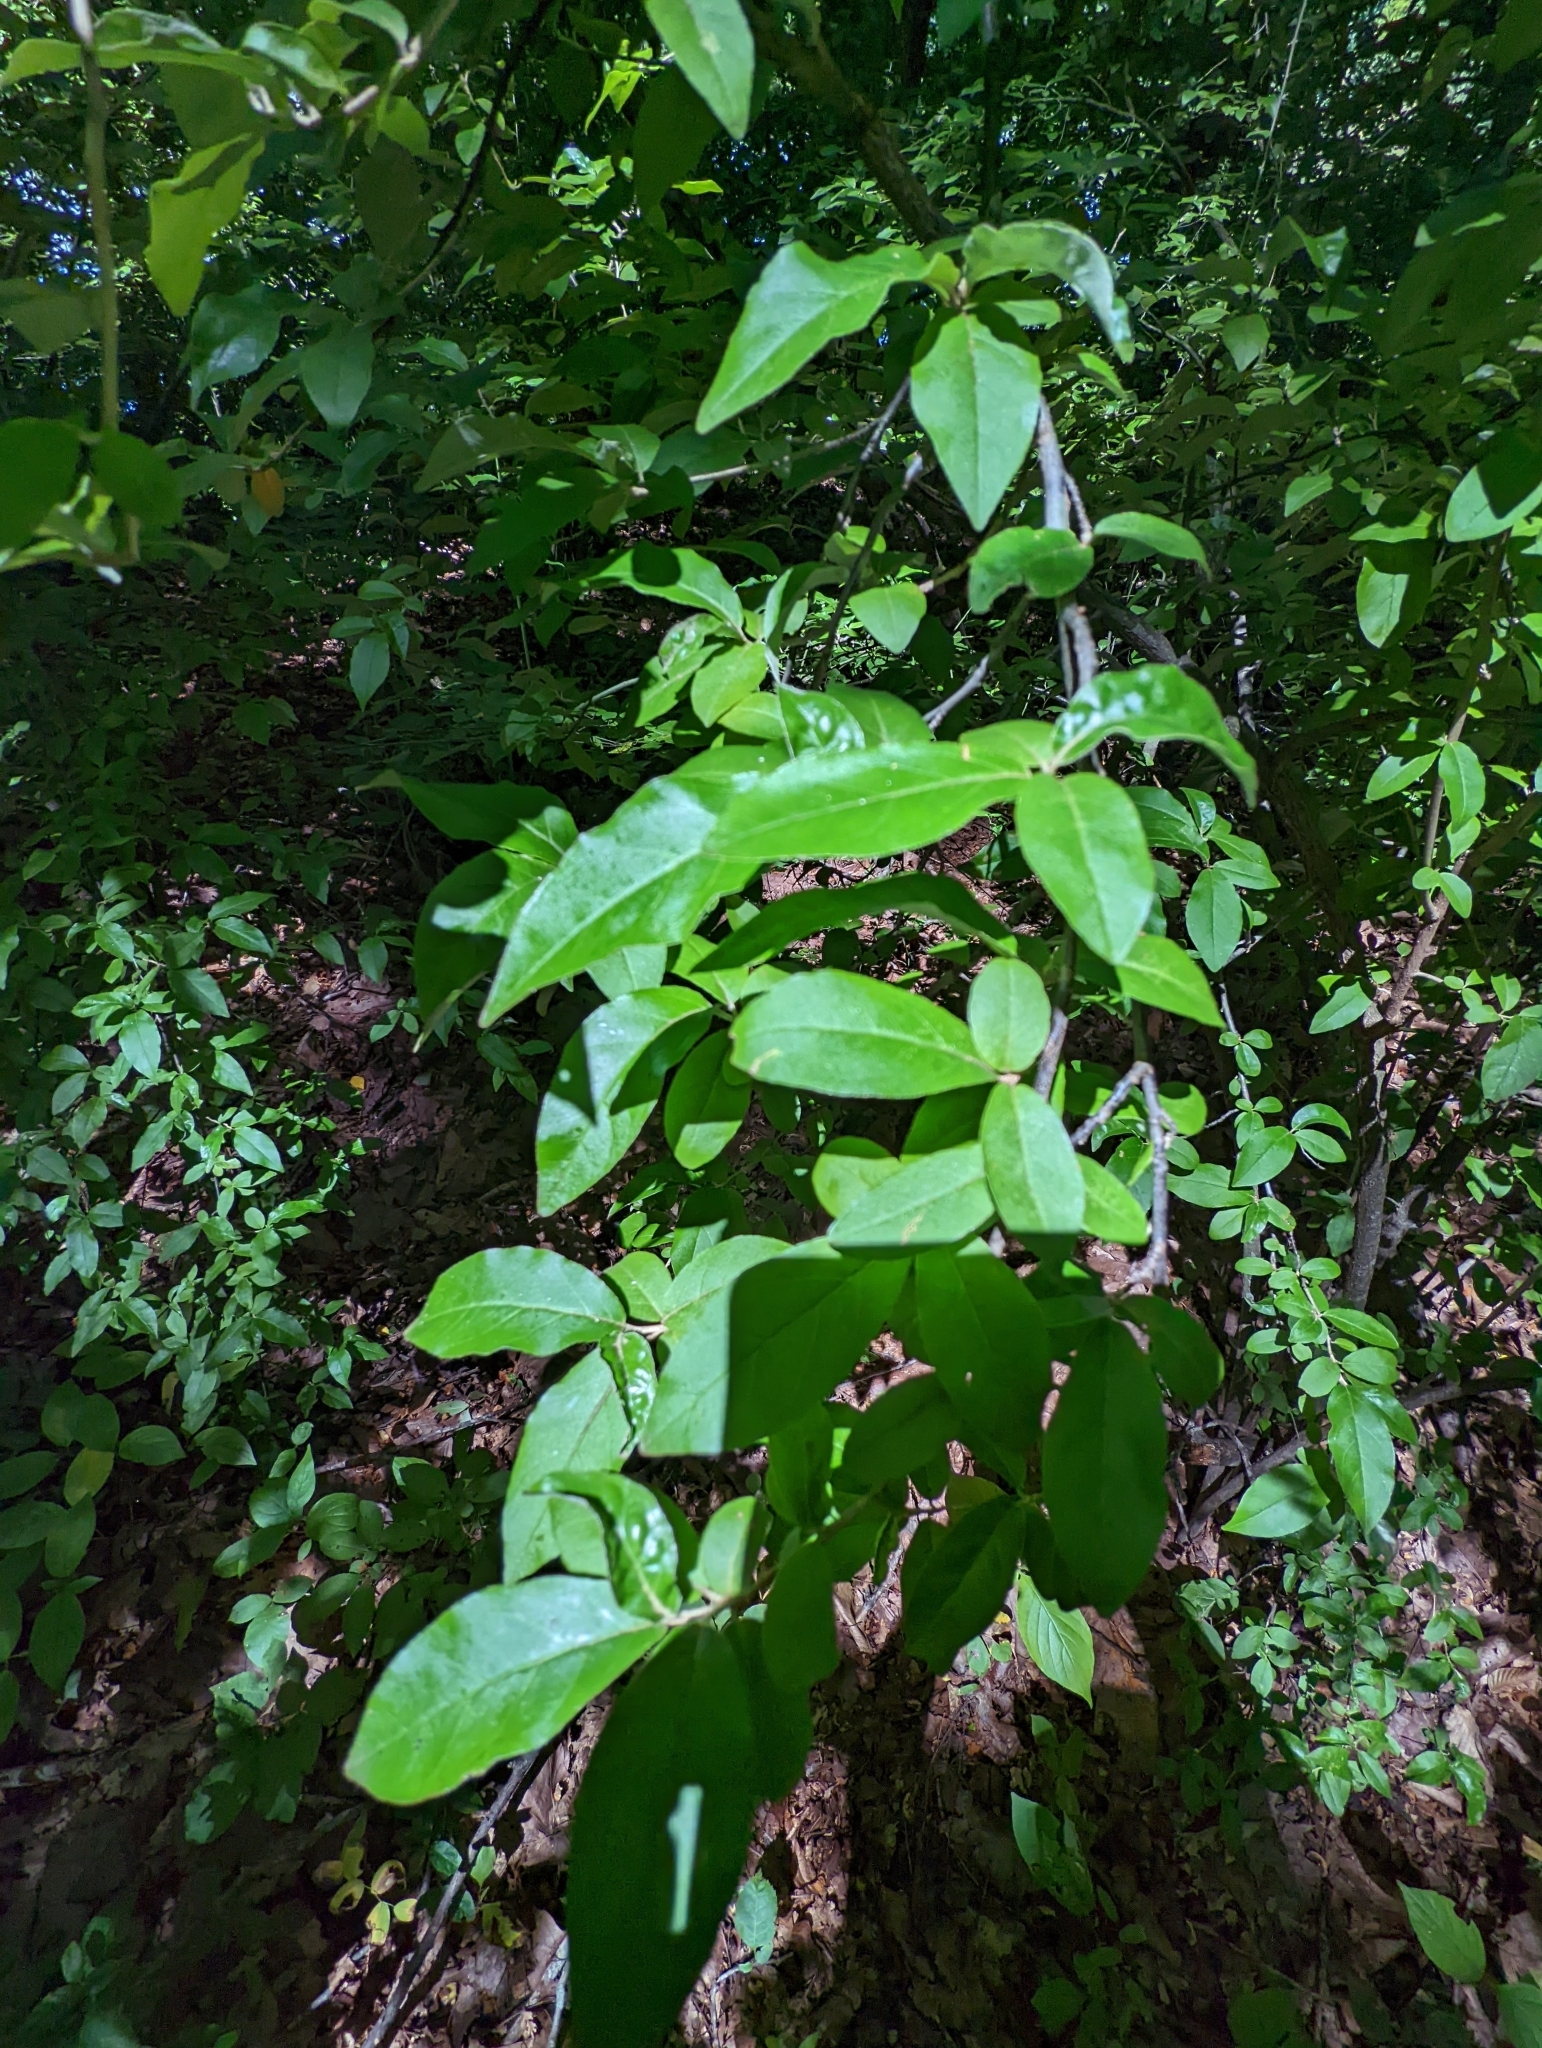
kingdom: Plantae
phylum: Tracheophyta
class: Magnoliopsida
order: Rosales
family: Elaeagnaceae
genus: Elaeagnus
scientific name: Elaeagnus umbellata
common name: Autumn olive
